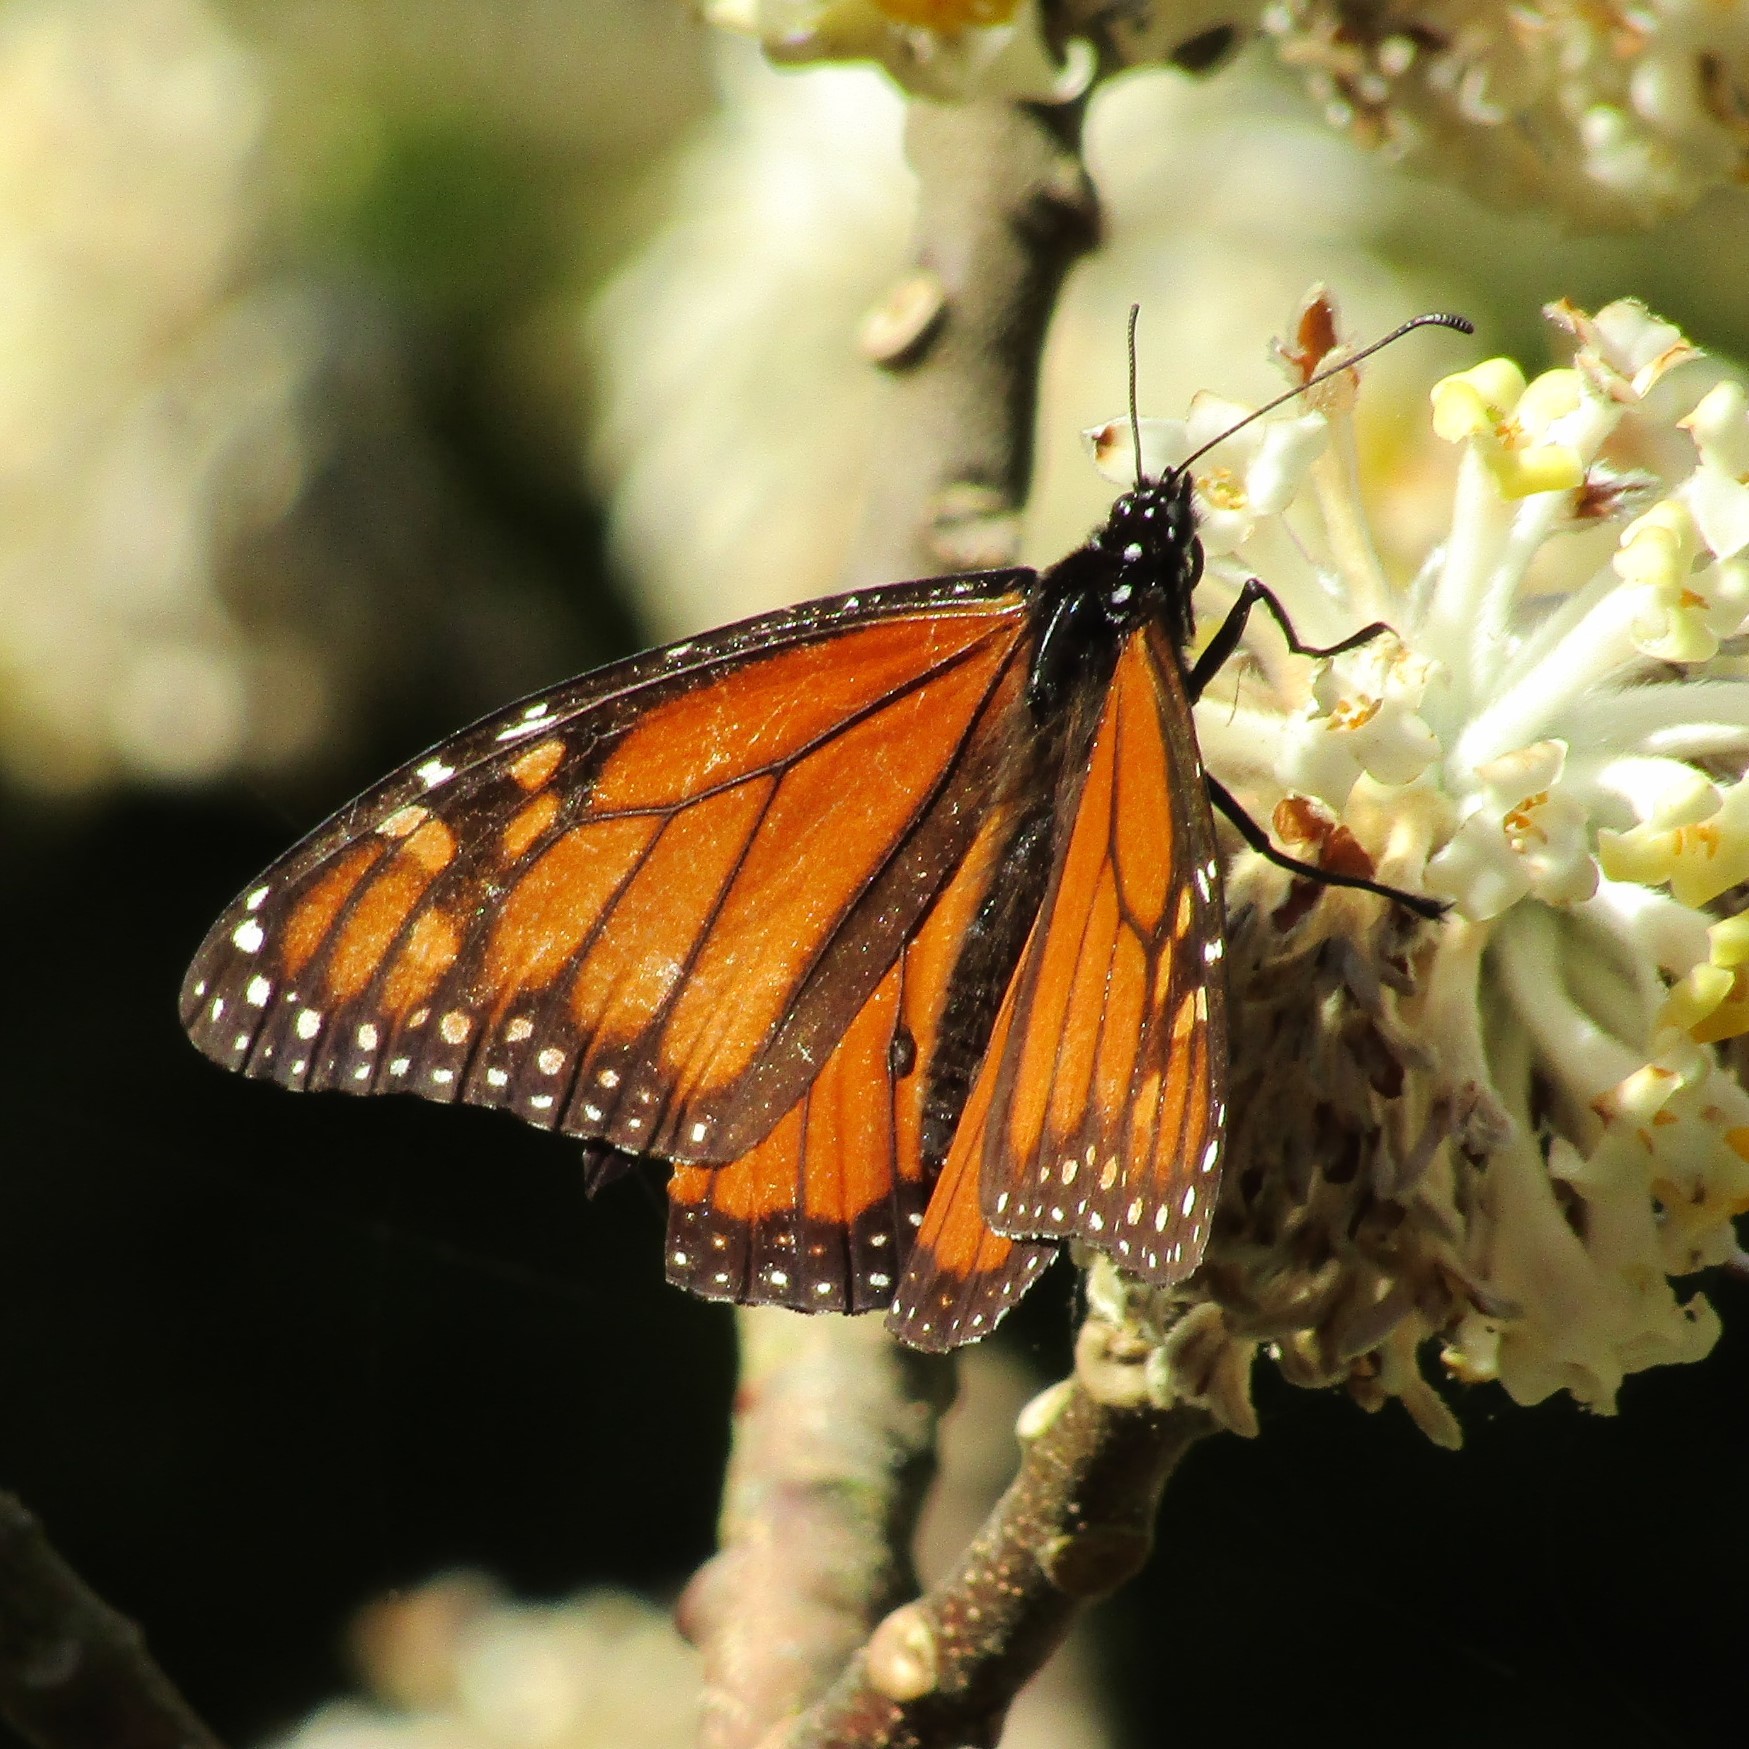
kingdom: Animalia
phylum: Arthropoda
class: Insecta
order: Lepidoptera
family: Nymphalidae
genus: Danaus
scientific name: Danaus plexippus
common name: Monarch
